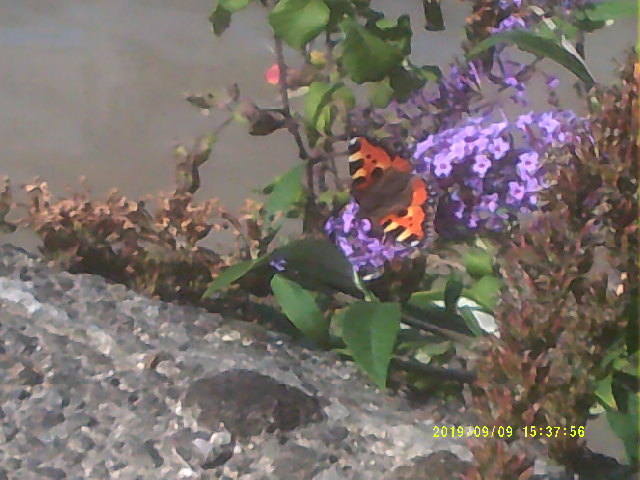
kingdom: Animalia
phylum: Arthropoda
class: Insecta
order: Lepidoptera
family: Nymphalidae
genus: Aglais
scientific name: Aglais urticae
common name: Small tortoiseshell
